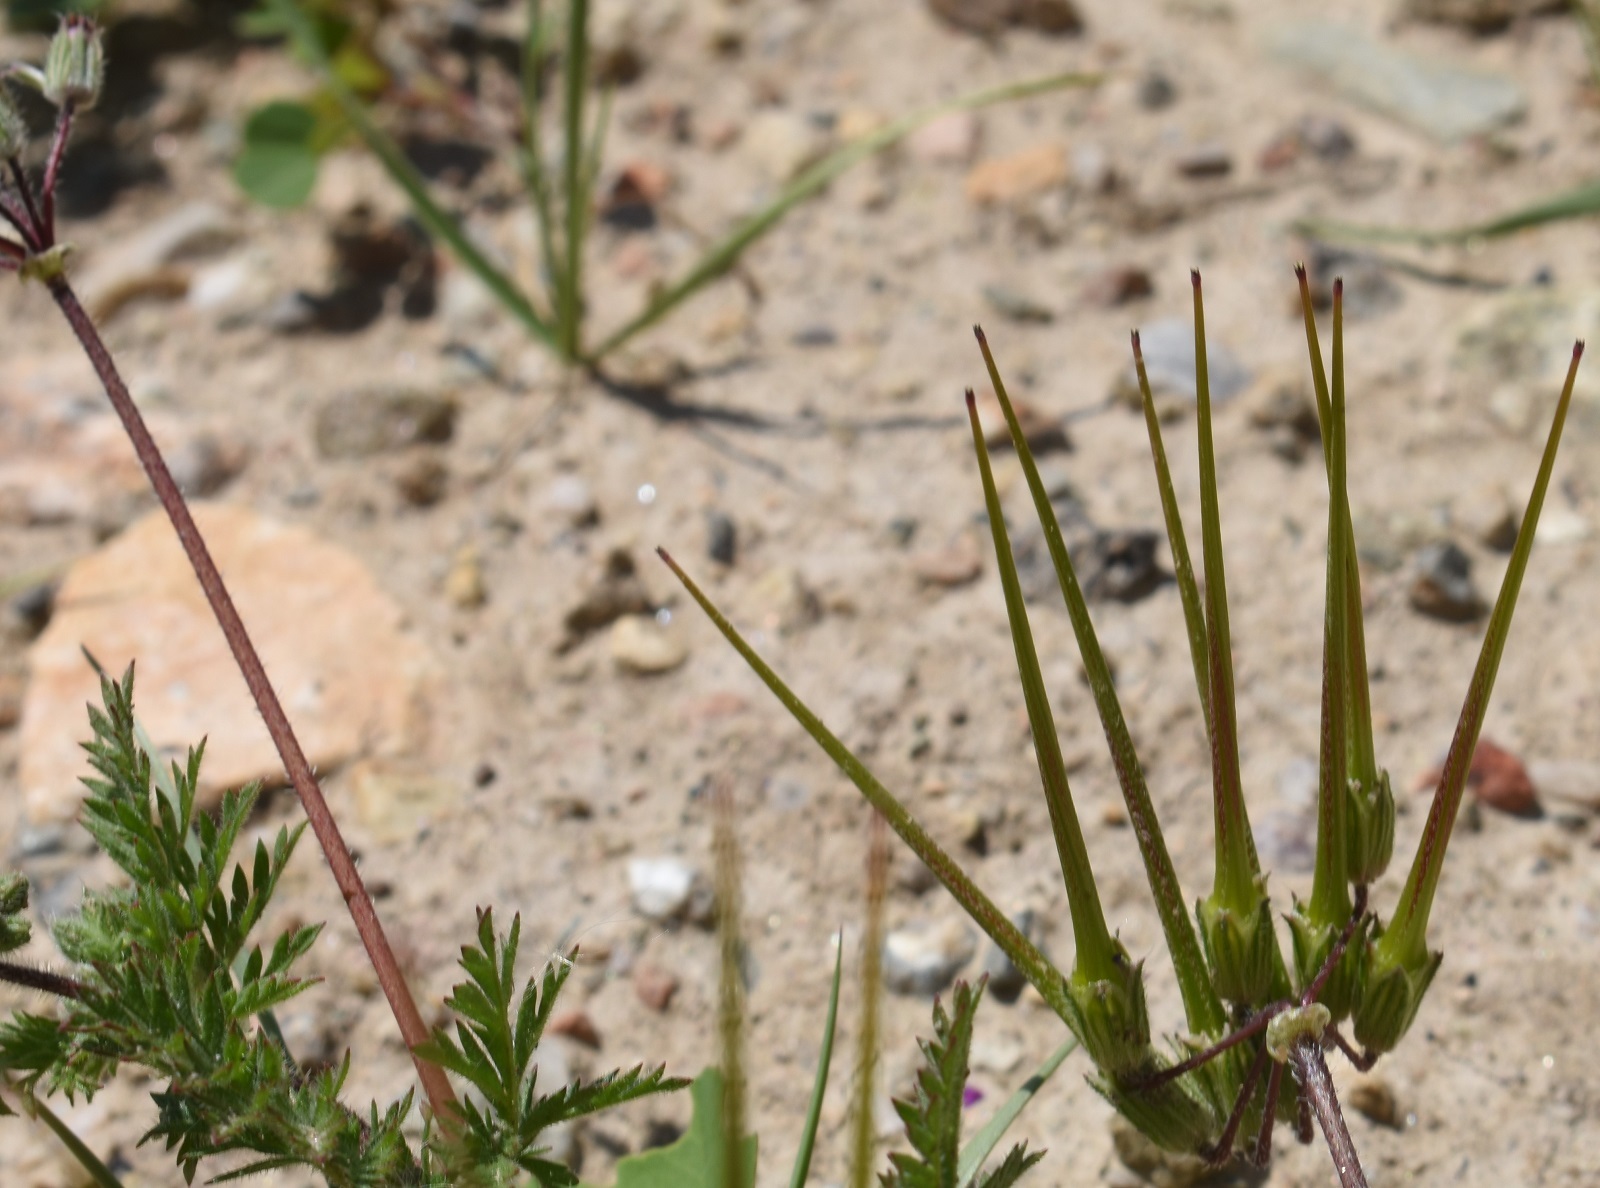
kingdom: Plantae
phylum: Tracheophyta
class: Magnoliopsida
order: Geraniales
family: Geraniaceae
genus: Erodium
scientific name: Erodium cicutarium
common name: Common stork's-bill
